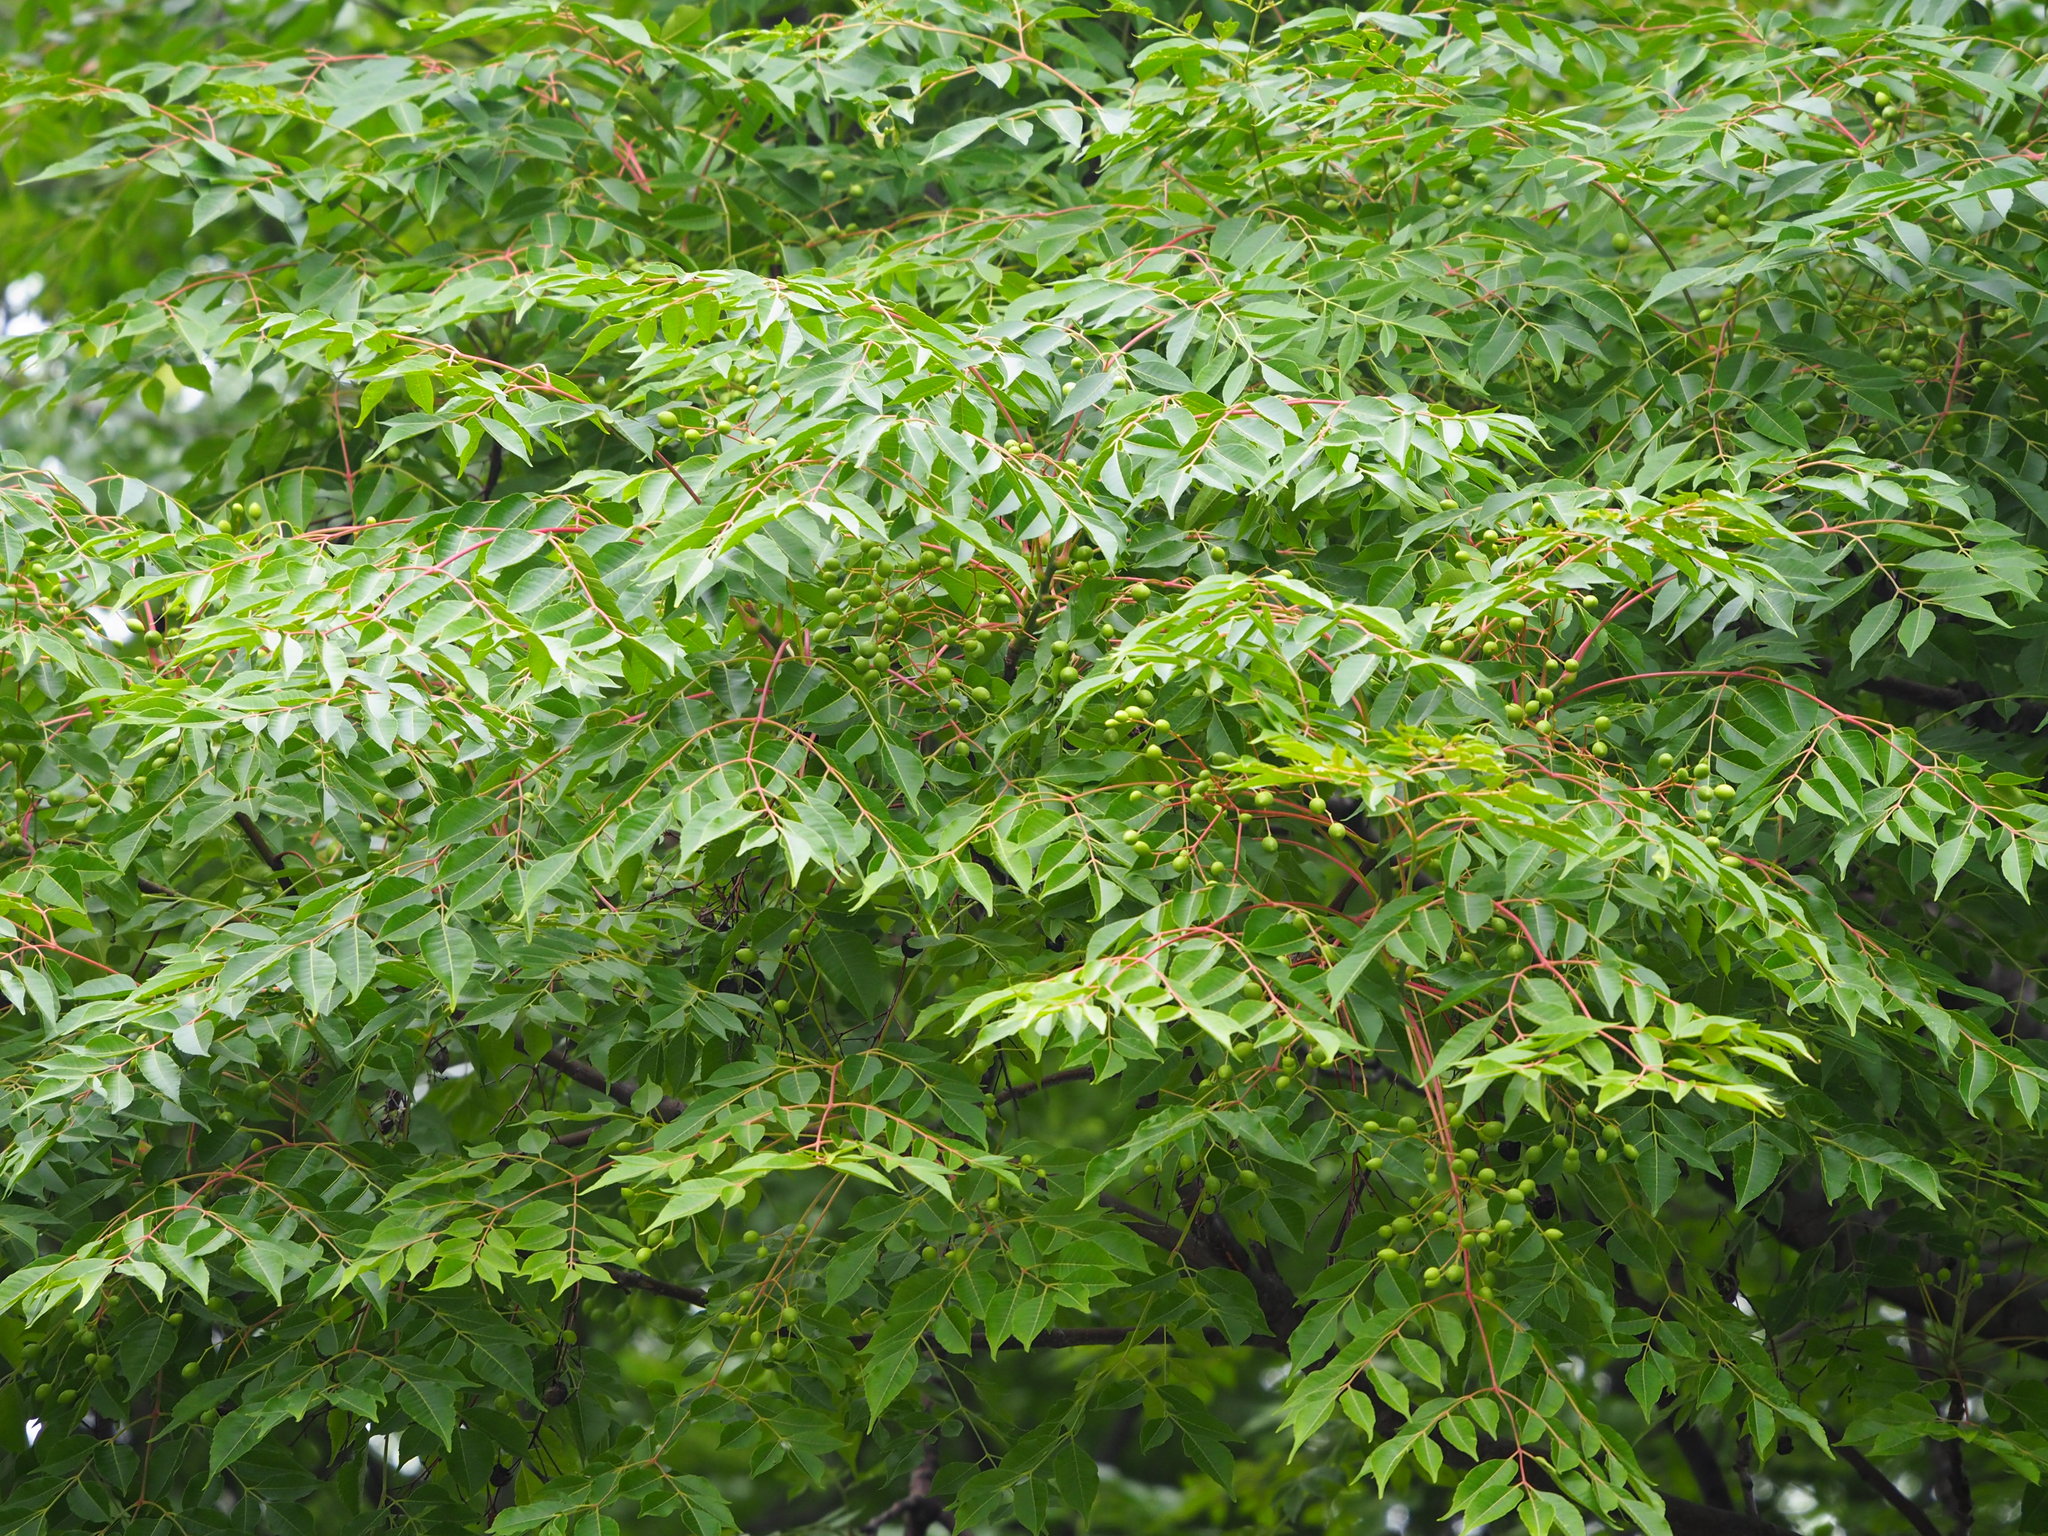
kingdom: Plantae
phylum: Tracheophyta
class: Magnoliopsida
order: Sapindales
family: Meliaceae
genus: Melia
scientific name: Melia azedarach
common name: Chinaberrytree
